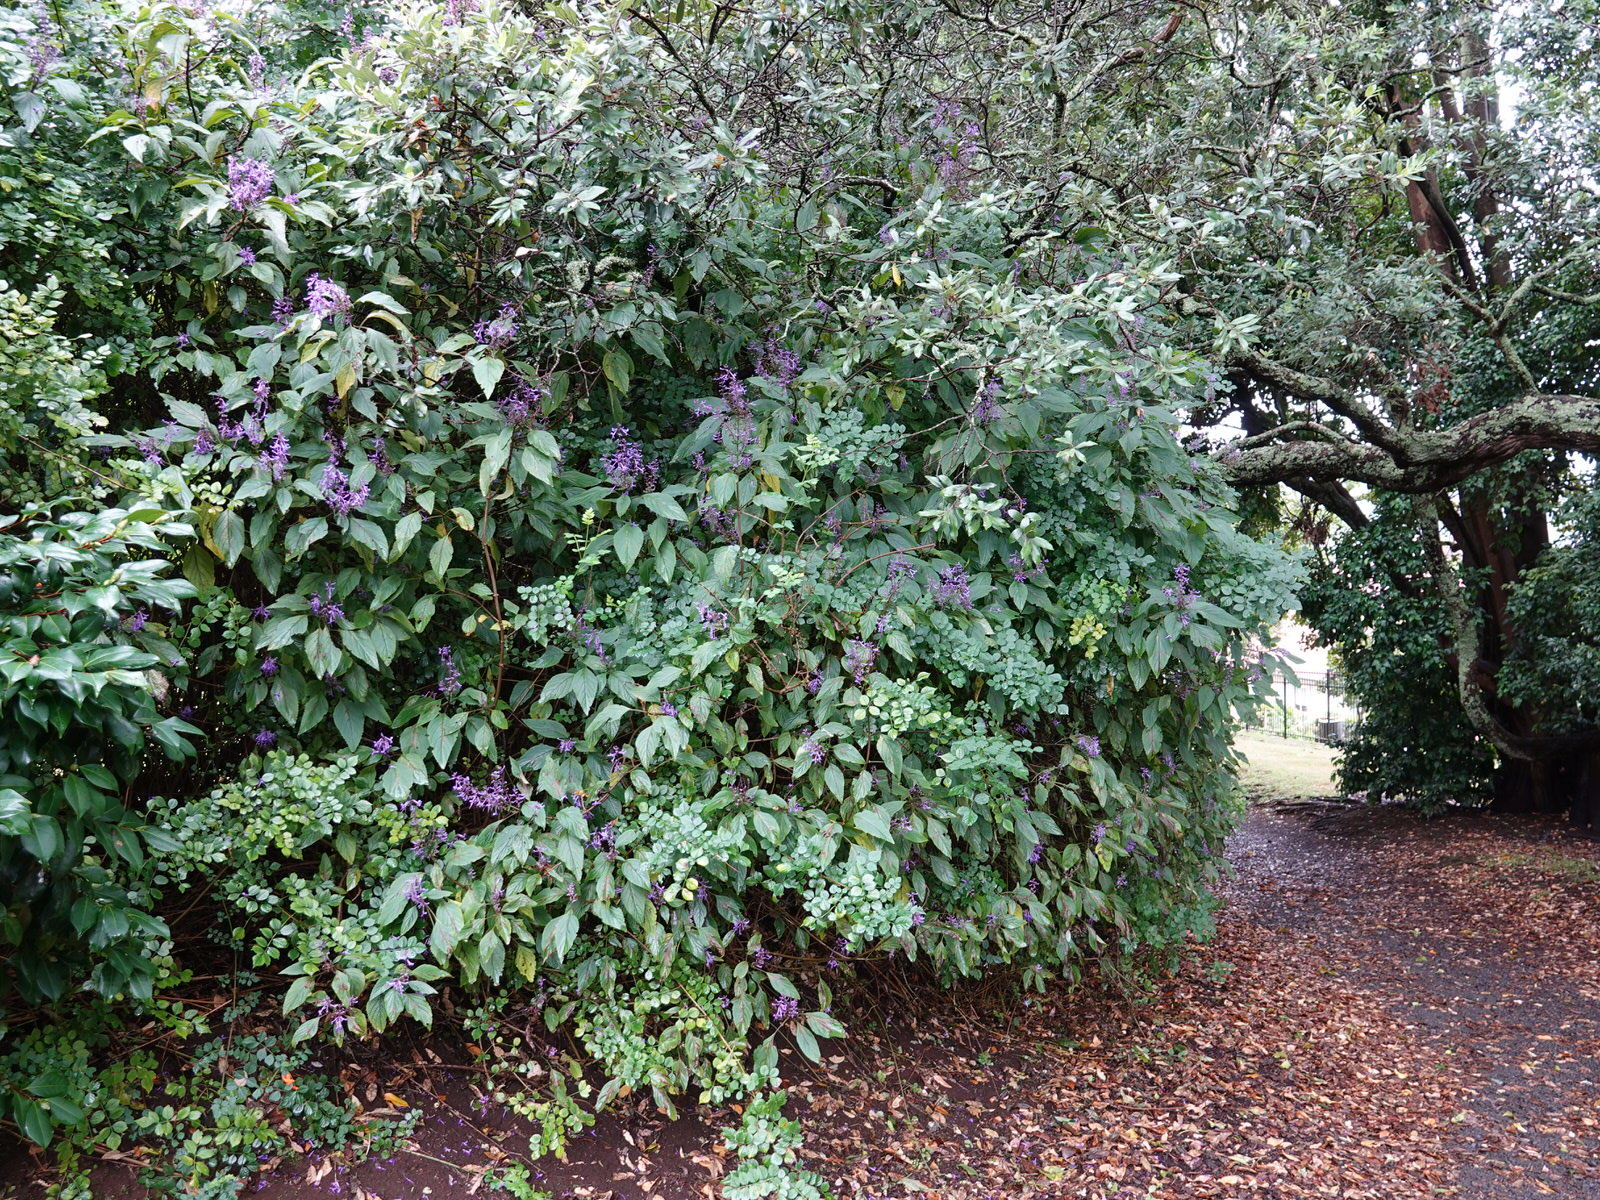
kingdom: Plantae
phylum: Tracheophyta
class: Magnoliopsida
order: Lamiales
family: Lamiaceae
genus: Plectranthus
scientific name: Plectranthus ecklonii
